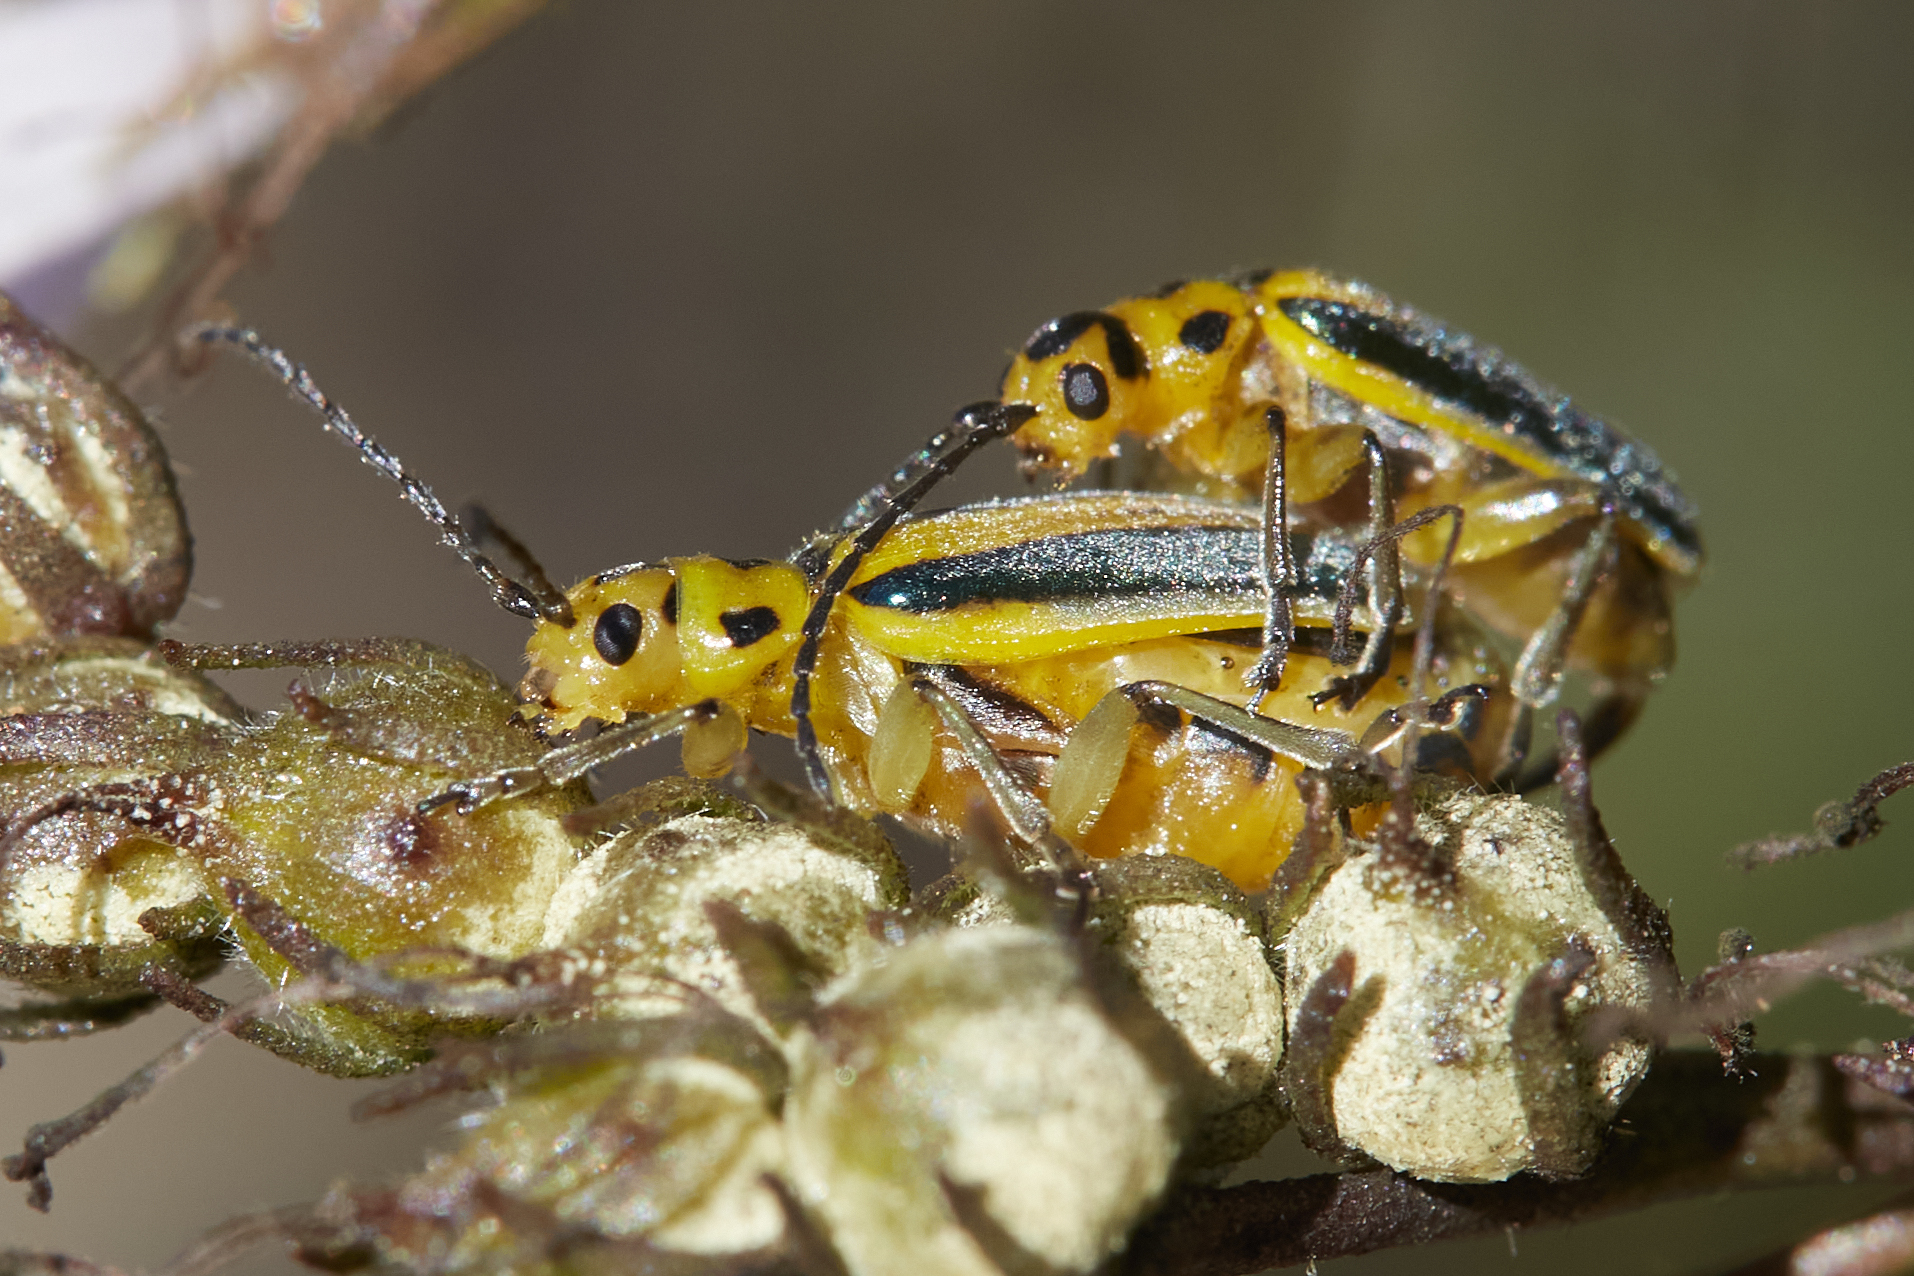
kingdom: Animalia
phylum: Arthropoda
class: Insecta
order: Coleoptera
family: Chrysomelidae
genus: Trirhabda
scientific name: Trirhabda eriodictyonis
